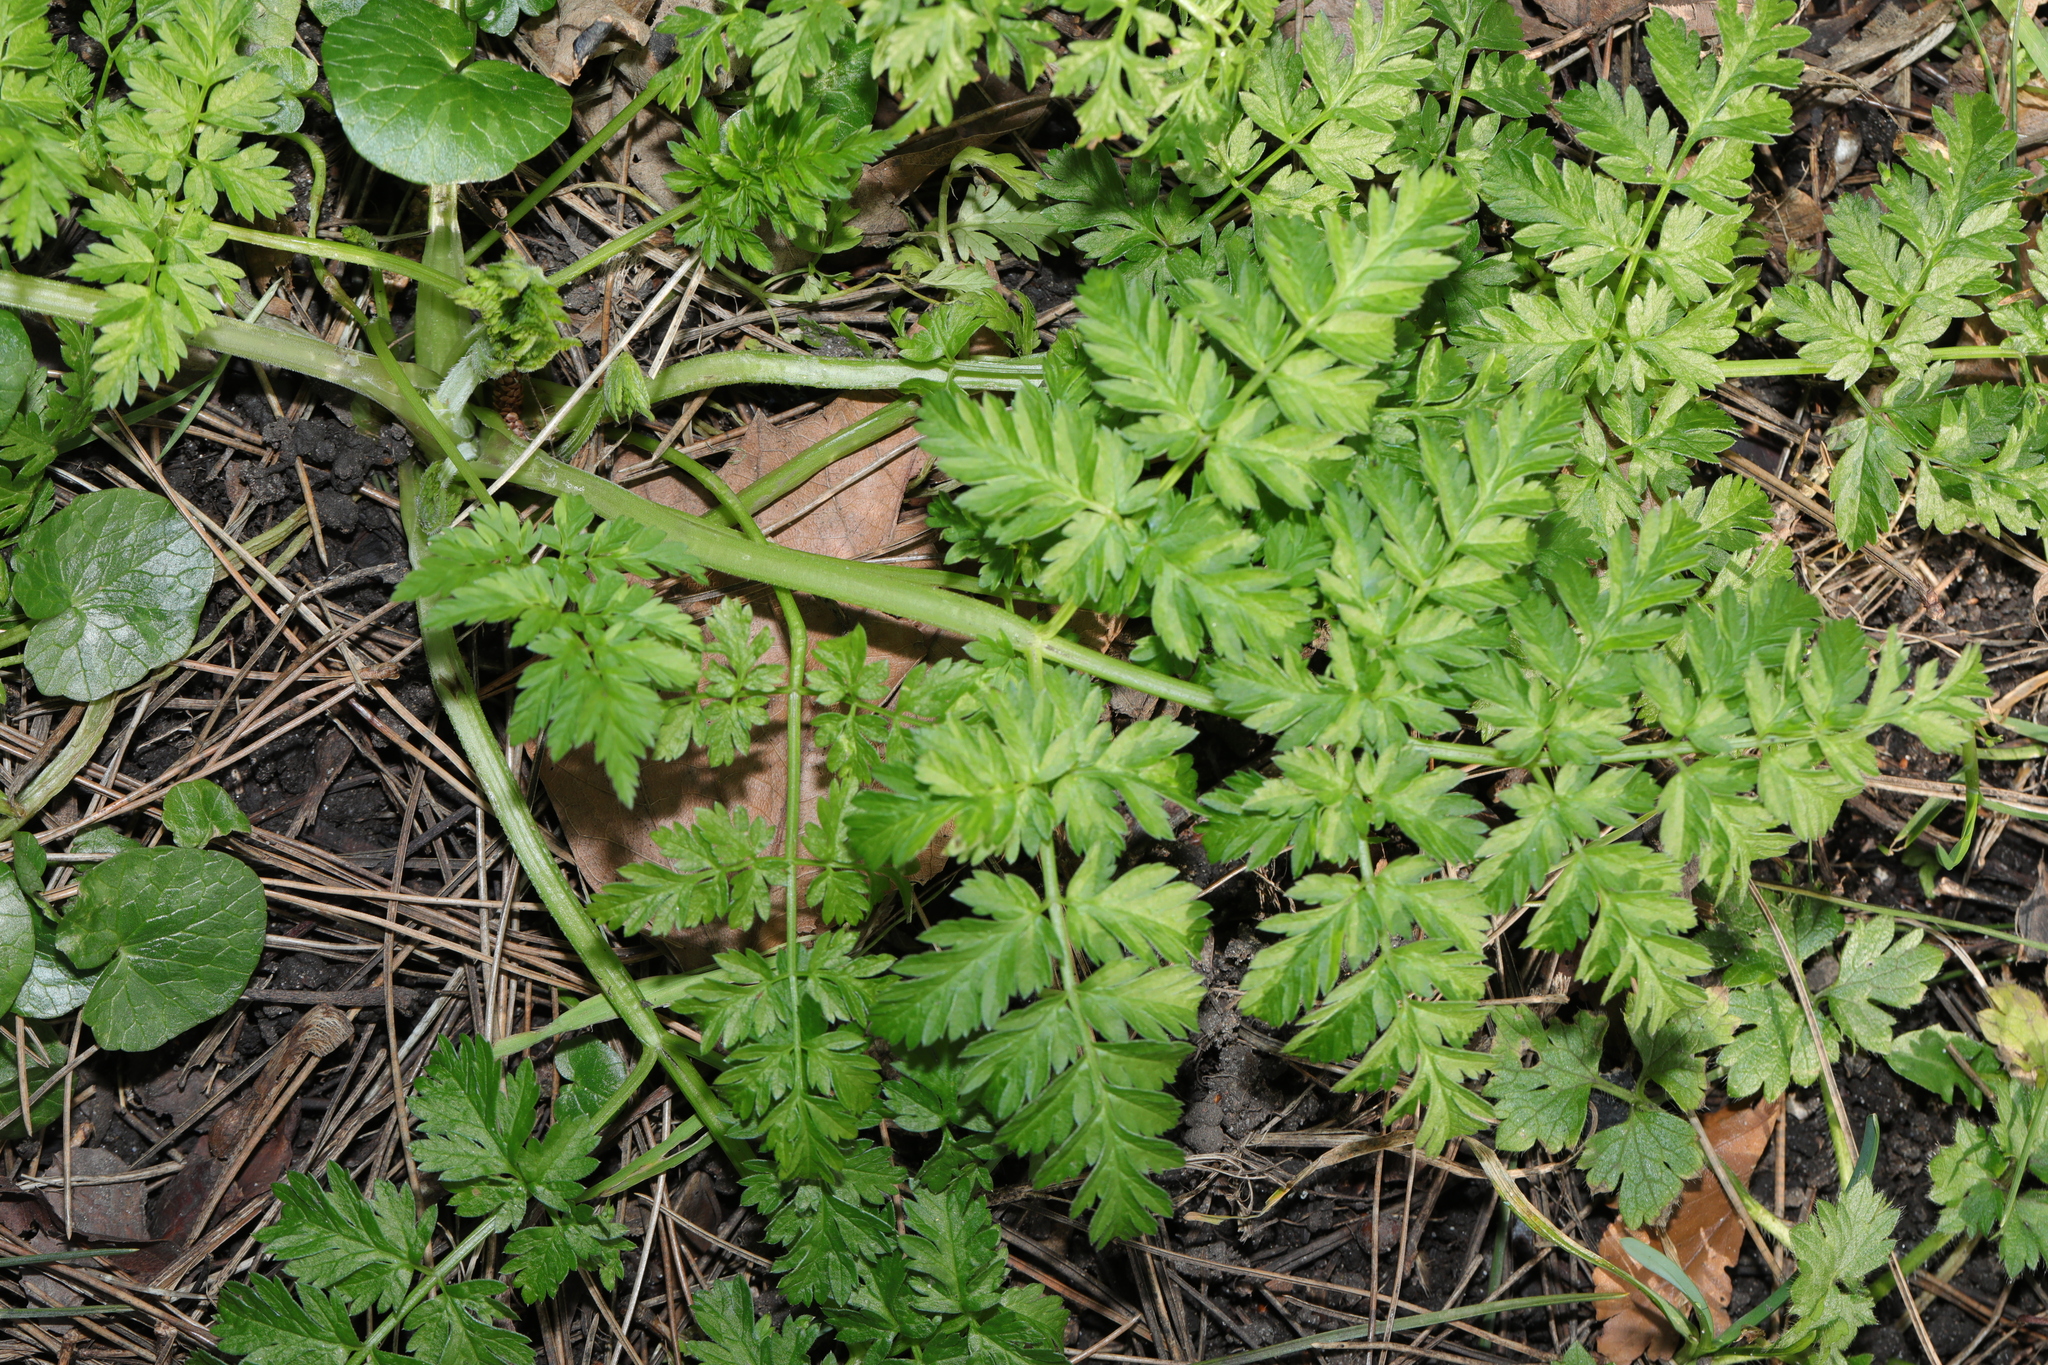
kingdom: Plantae
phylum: Tracheophyta
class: Magnoliopsida
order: Apiales
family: Apiaceae
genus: Anthriscus
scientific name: Anthriscus sylvestris
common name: Cow parsley
